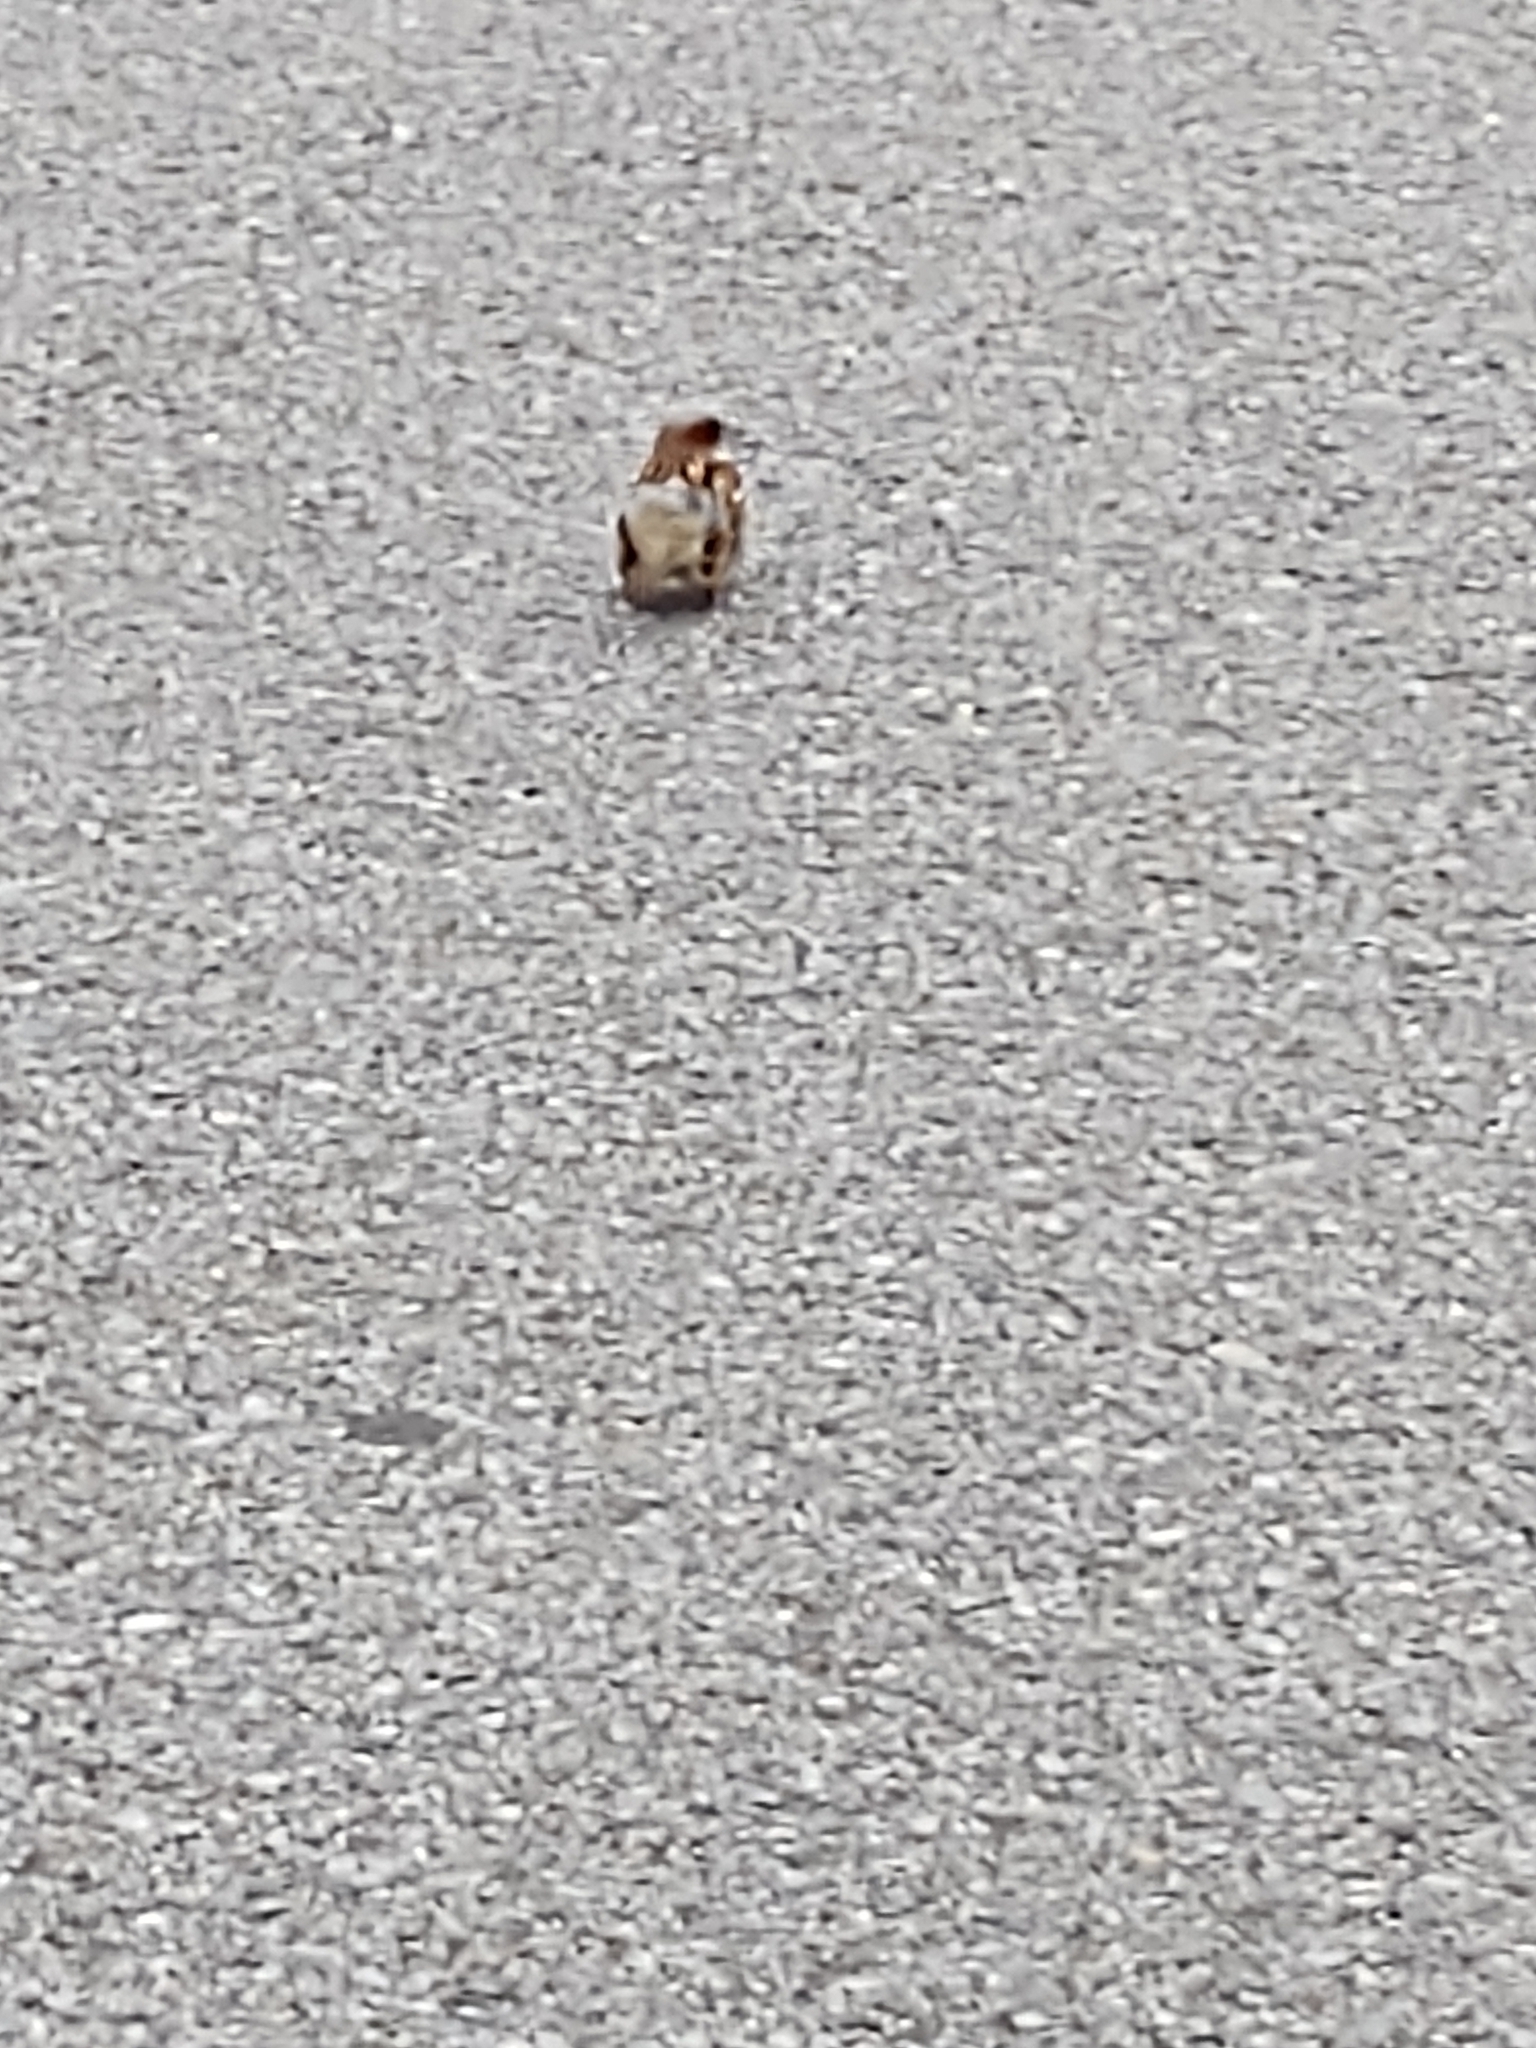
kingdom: Animalia
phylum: Chordata
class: Aves
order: Passeriformes
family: Passeridae
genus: Passer
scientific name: Passer domesticus
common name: House sparrow
